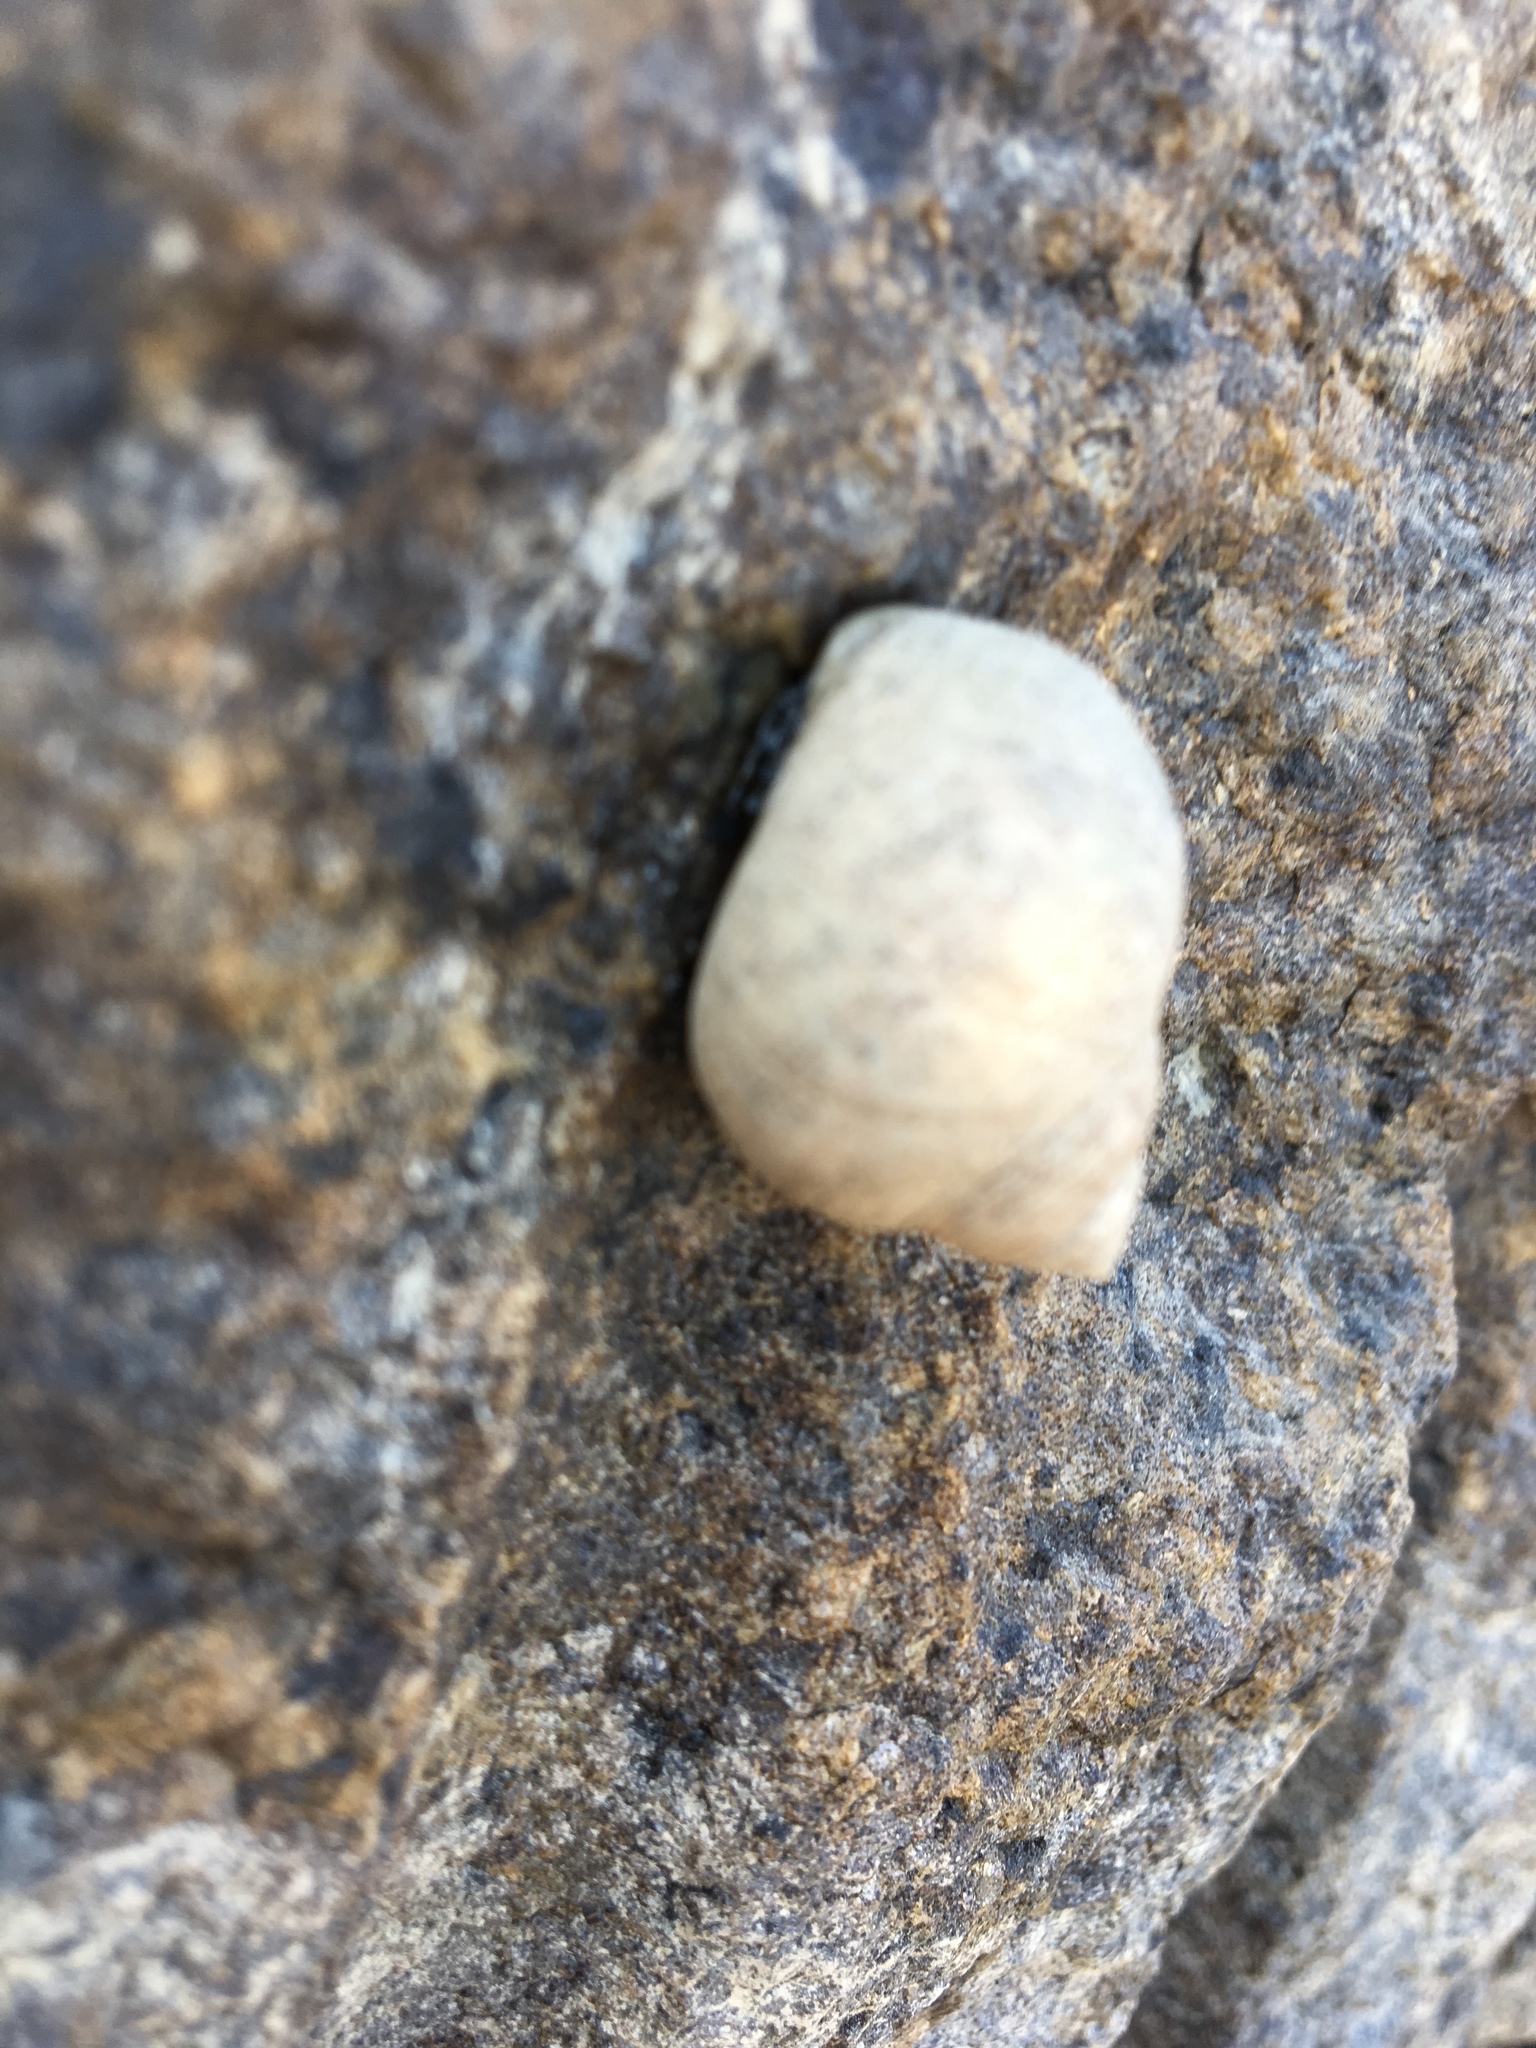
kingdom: Animalia
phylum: Mollusca
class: Gastropoda
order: Littorinimorpha
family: Littorinidae
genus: Littorina
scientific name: Littorina littorea
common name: Common periwinkle
